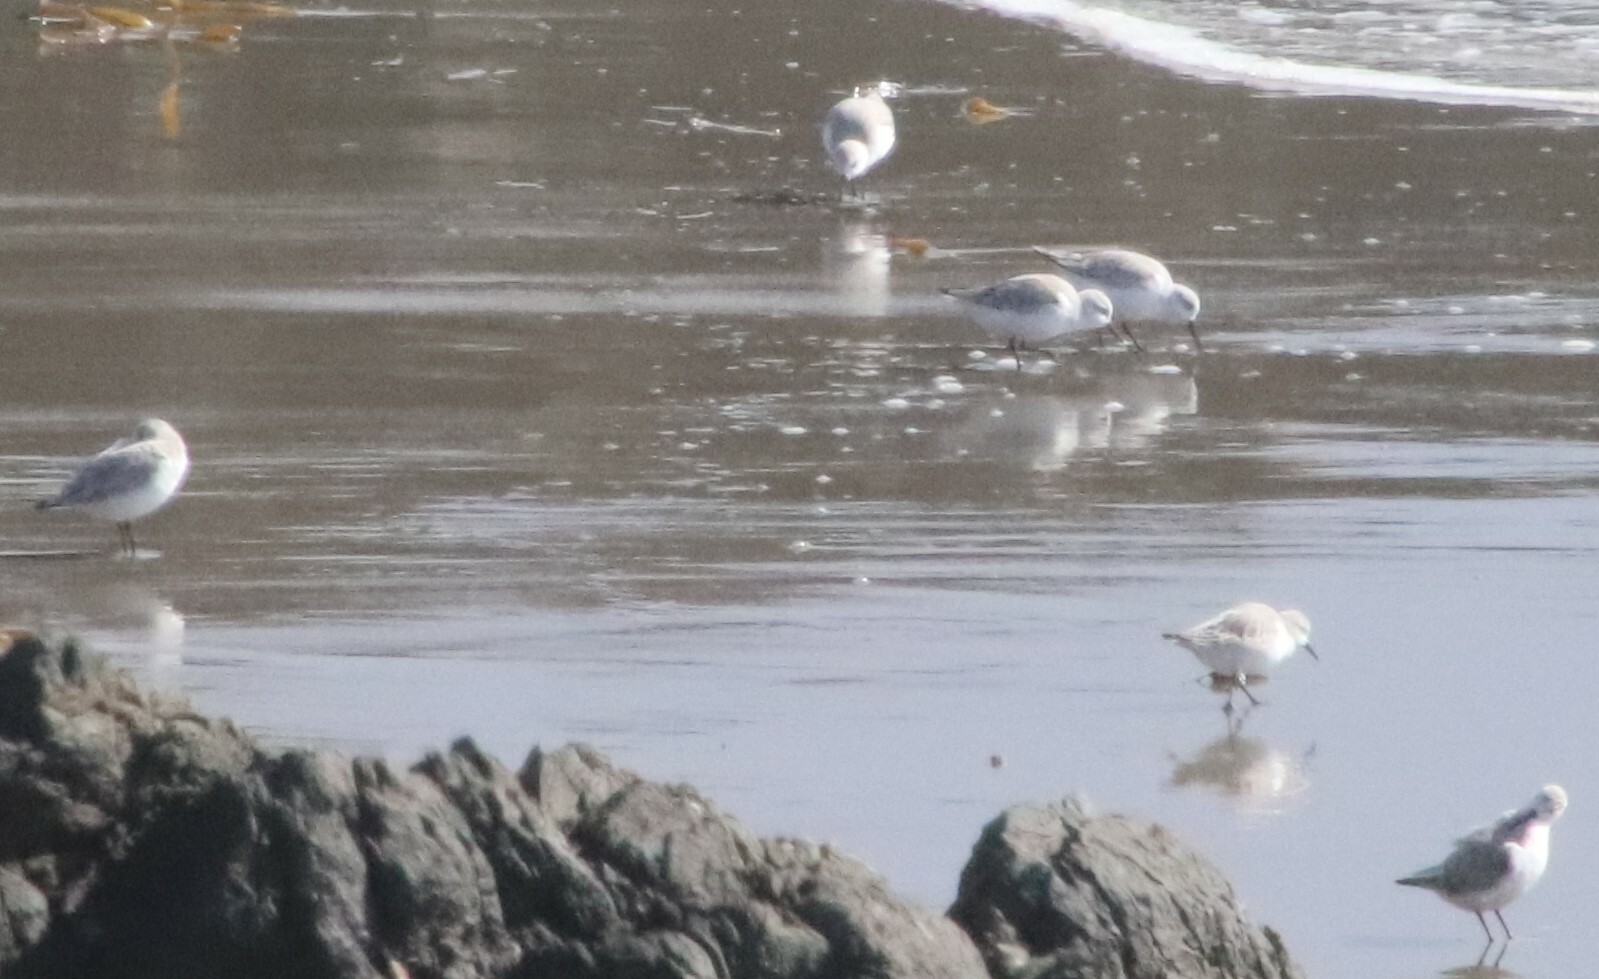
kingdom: Animalia
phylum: Chordata
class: Aves
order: Charadriiformes
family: Scolopacidae
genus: Calidris
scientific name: Calidris alba
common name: Sanderling
